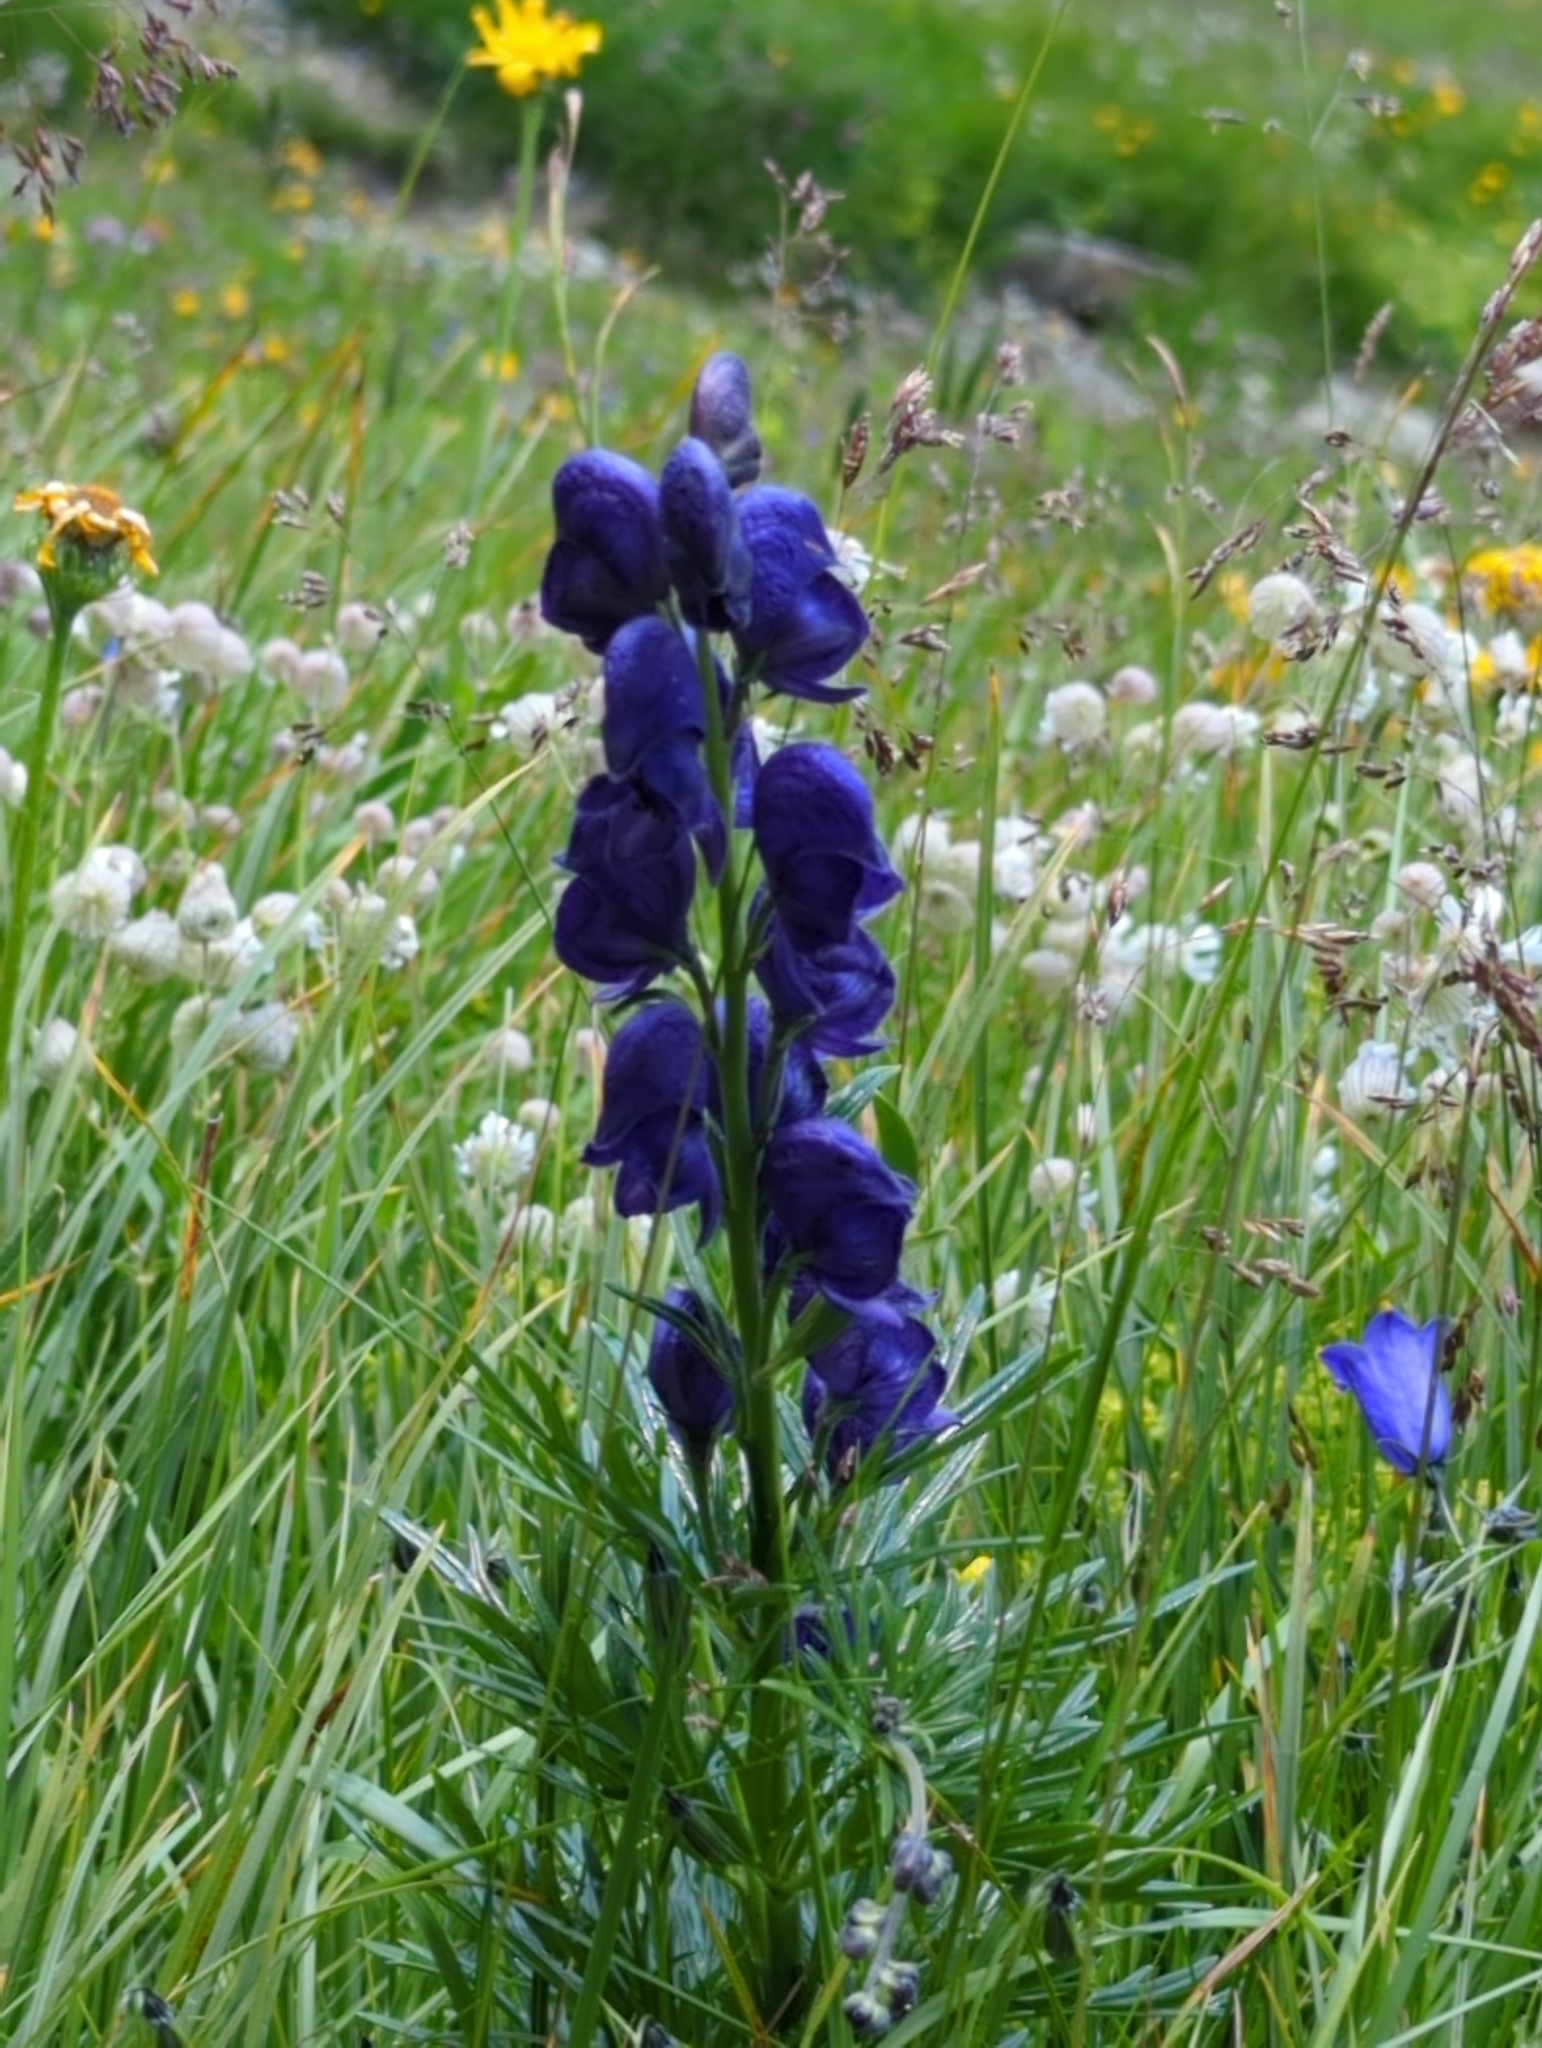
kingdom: Plantae
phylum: Tracheophyta
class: Magnoliopsida
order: Ranunculales
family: Ranunculaceae
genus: Aconitum
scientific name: Aconitum napellus
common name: Garden monkshood
